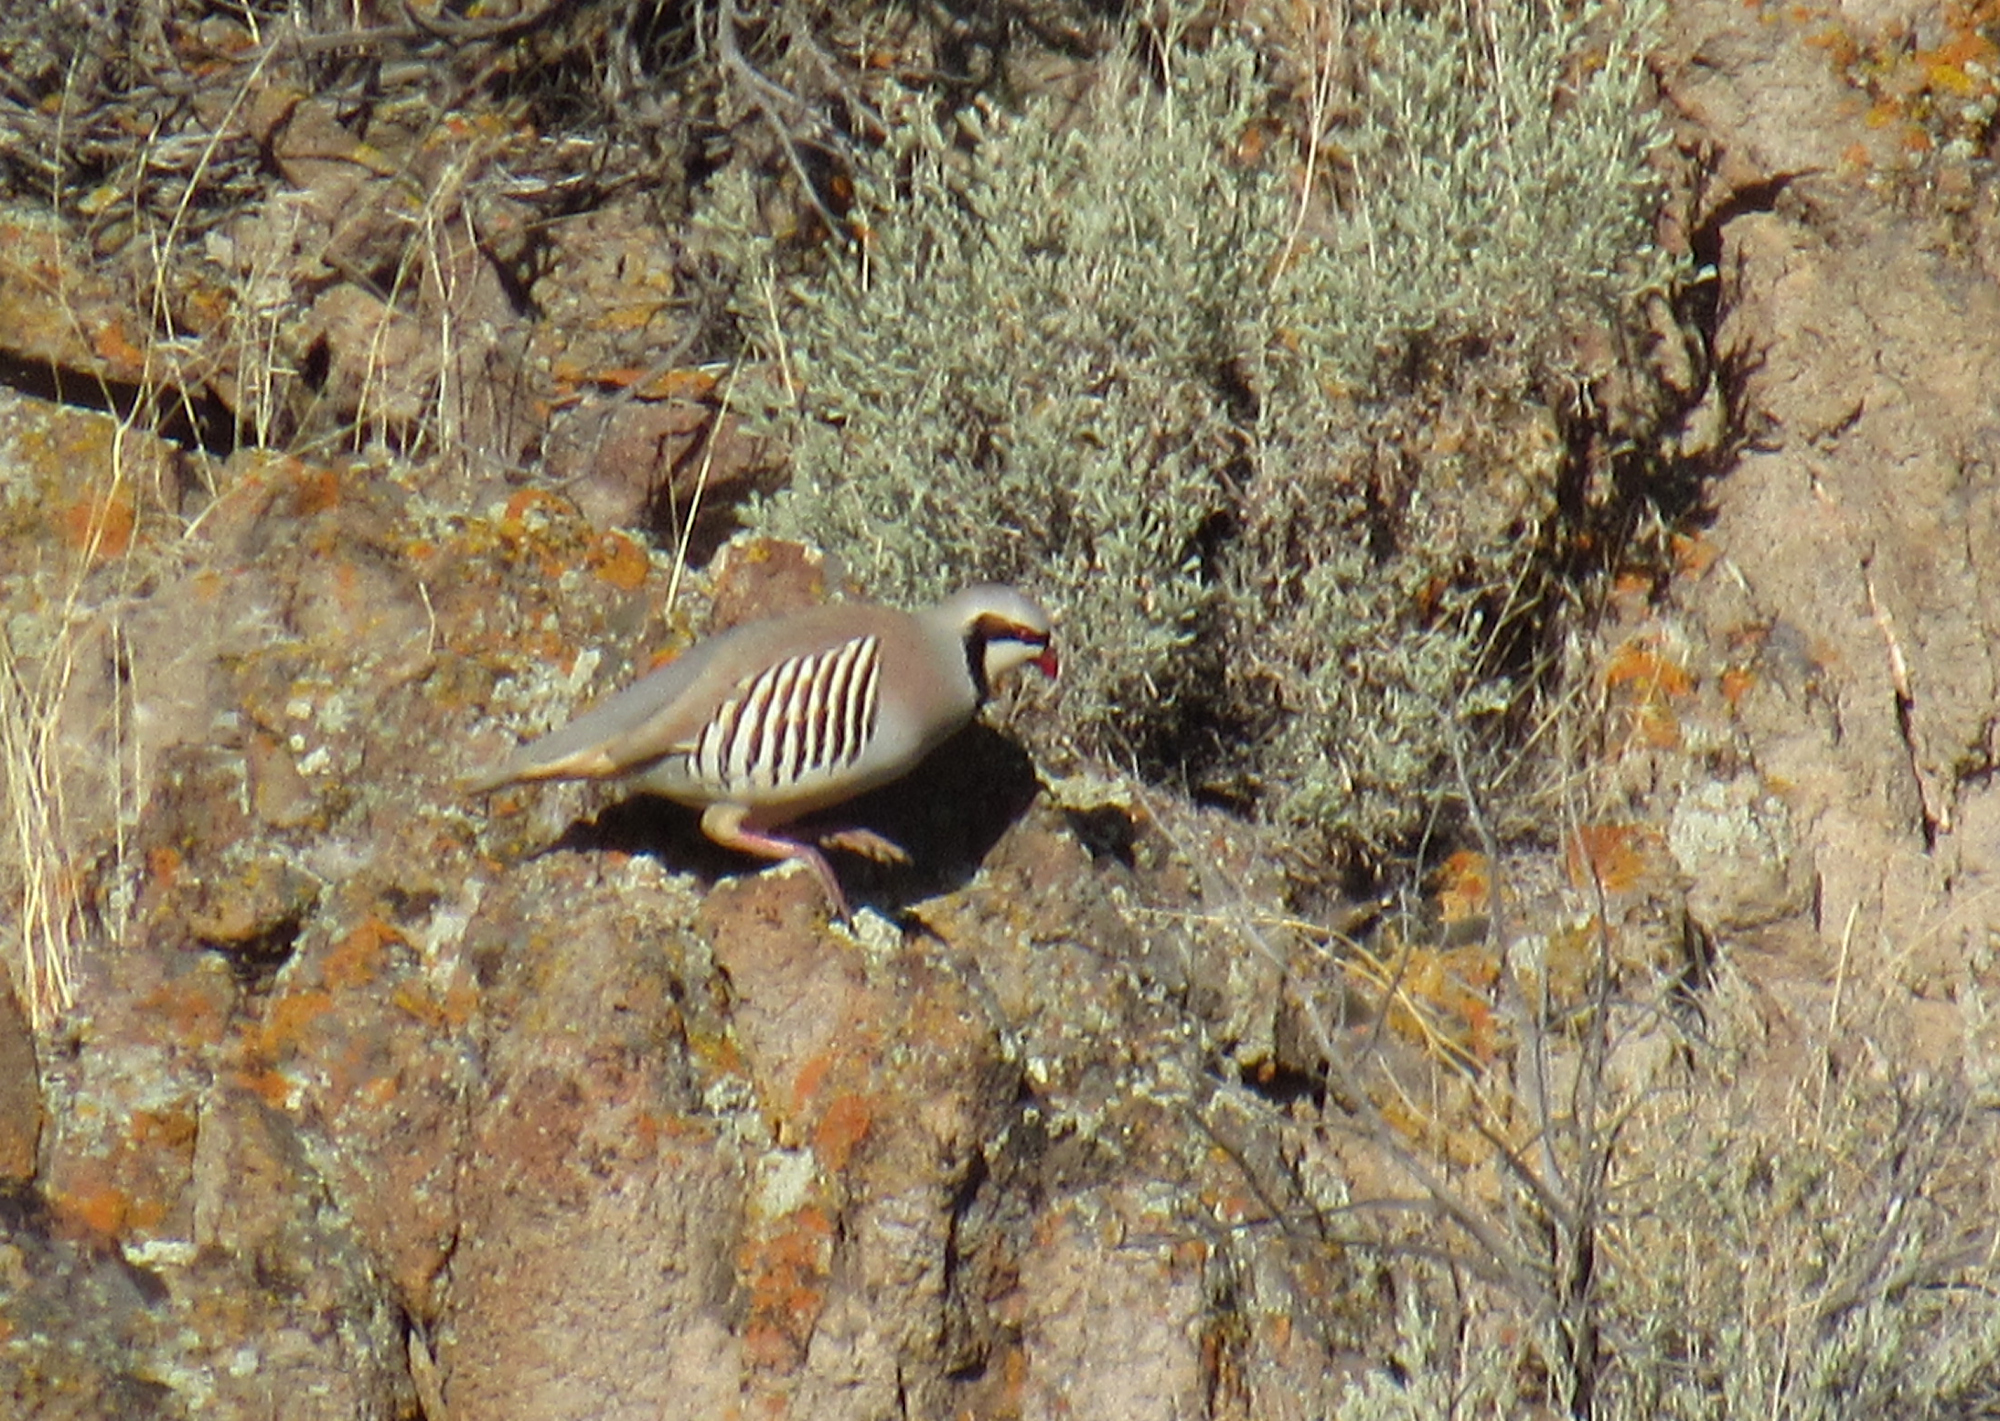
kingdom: Animalia
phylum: Chordata
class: Aves
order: Galliformes
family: Phasianidae
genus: Alectoris
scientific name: Alectoris chukar
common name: Chukar
